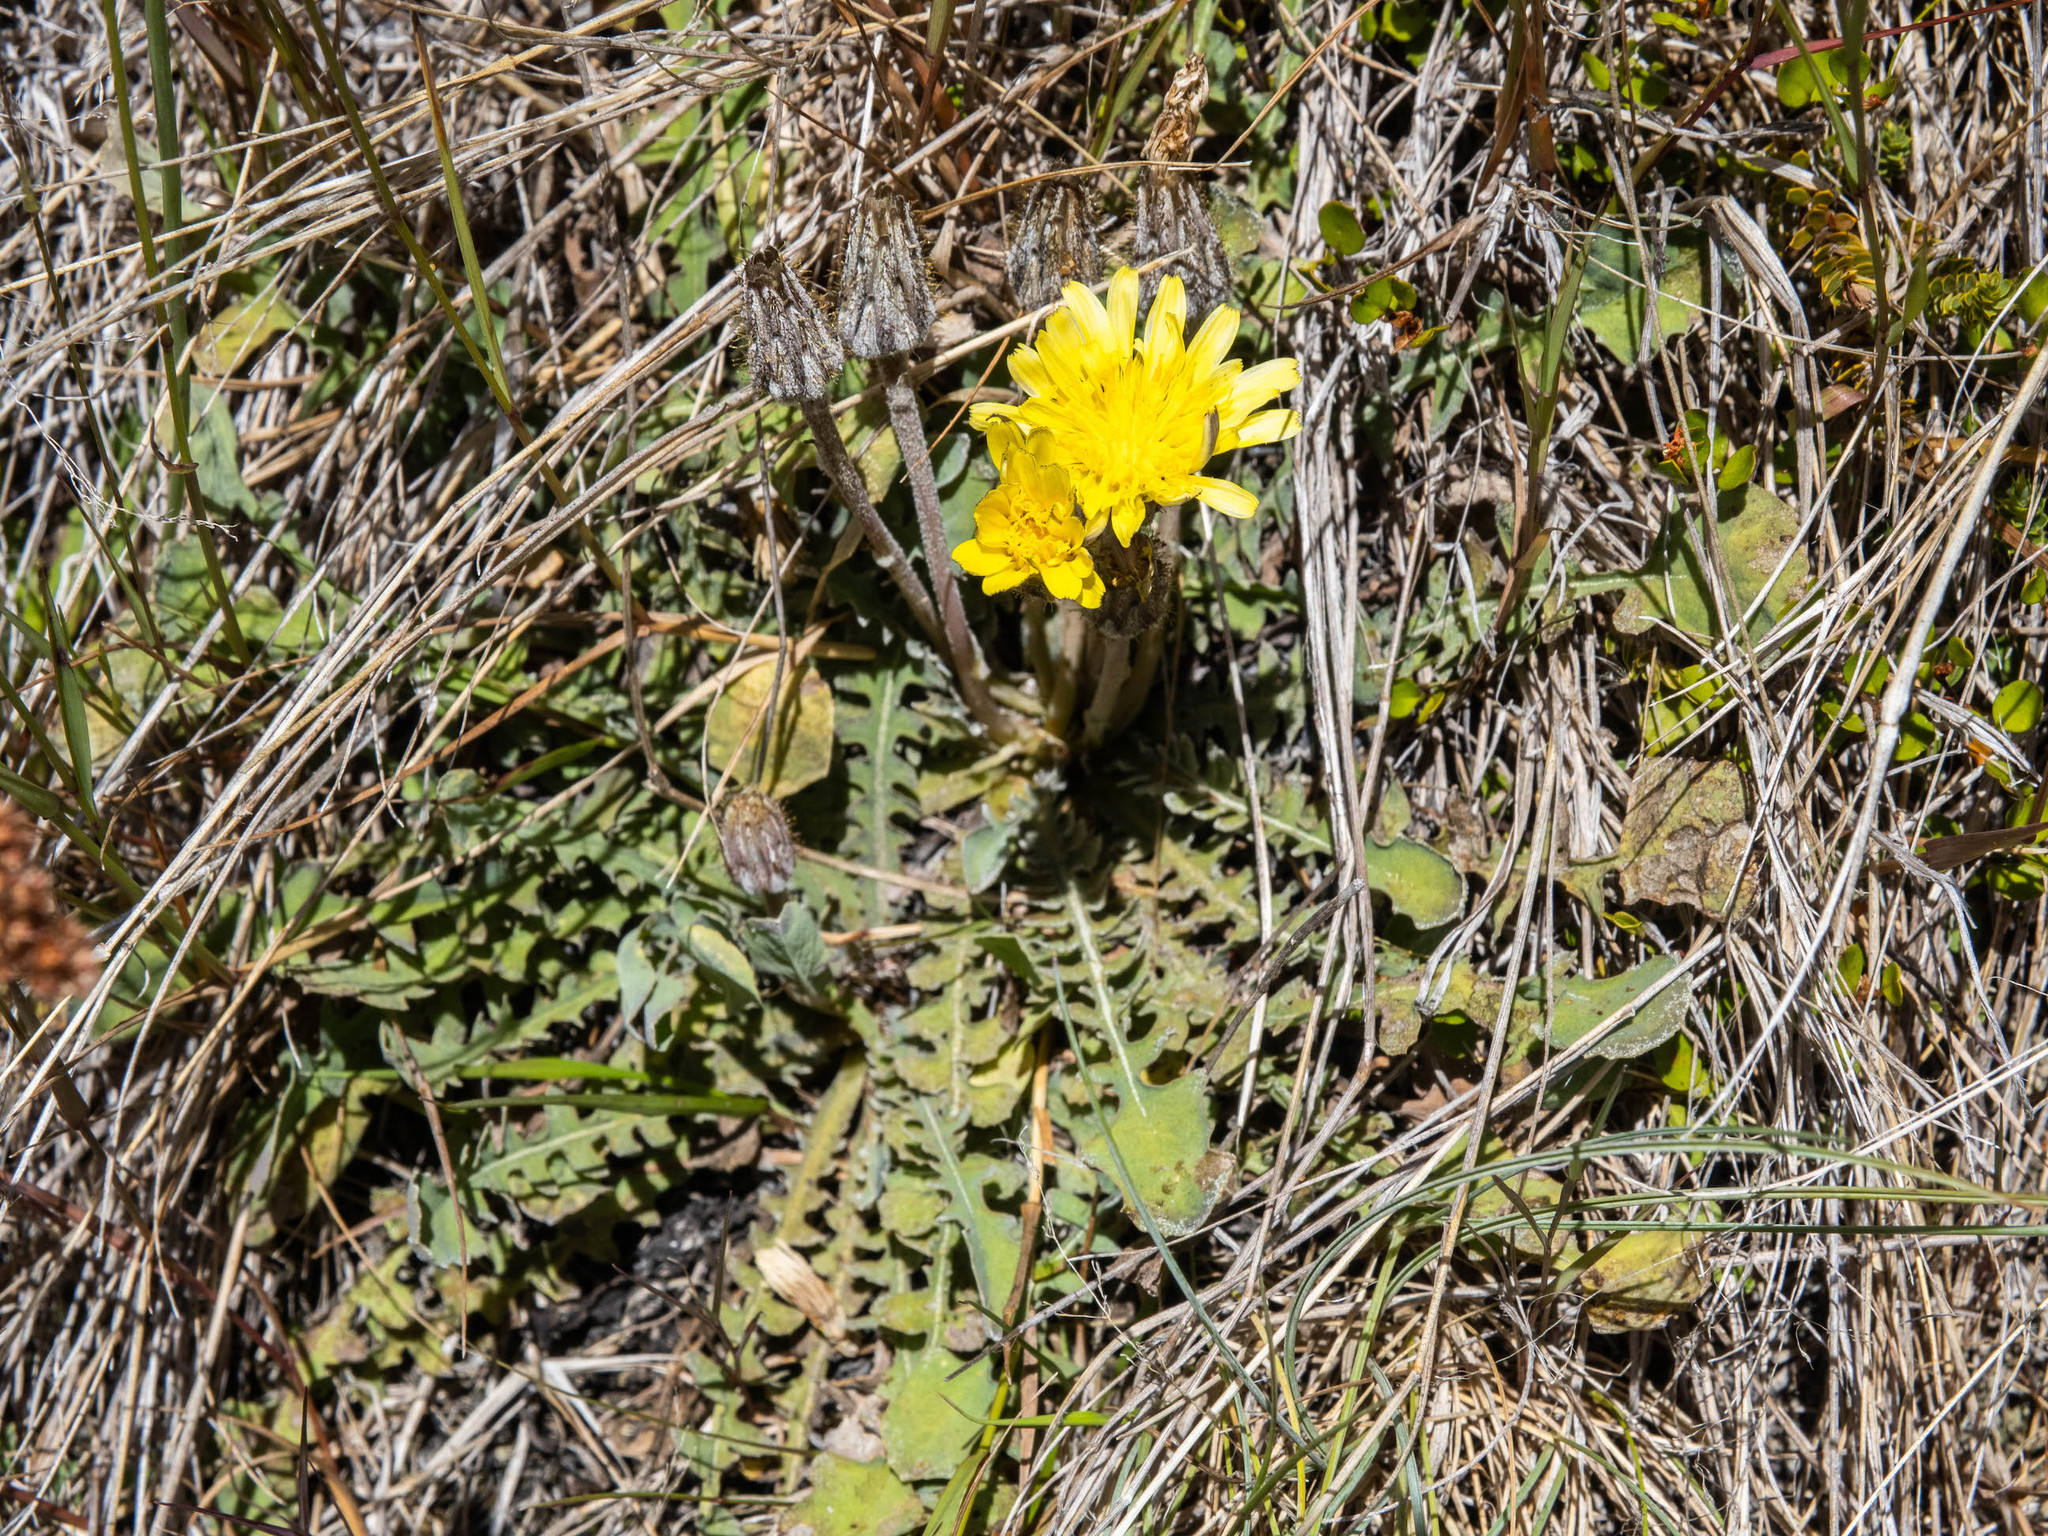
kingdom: Plantae
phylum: Tracheophyta
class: Magnoliopsida
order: Asterales
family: Asteraceae
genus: Sonchus
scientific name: Sonchus novae-zelandiae
